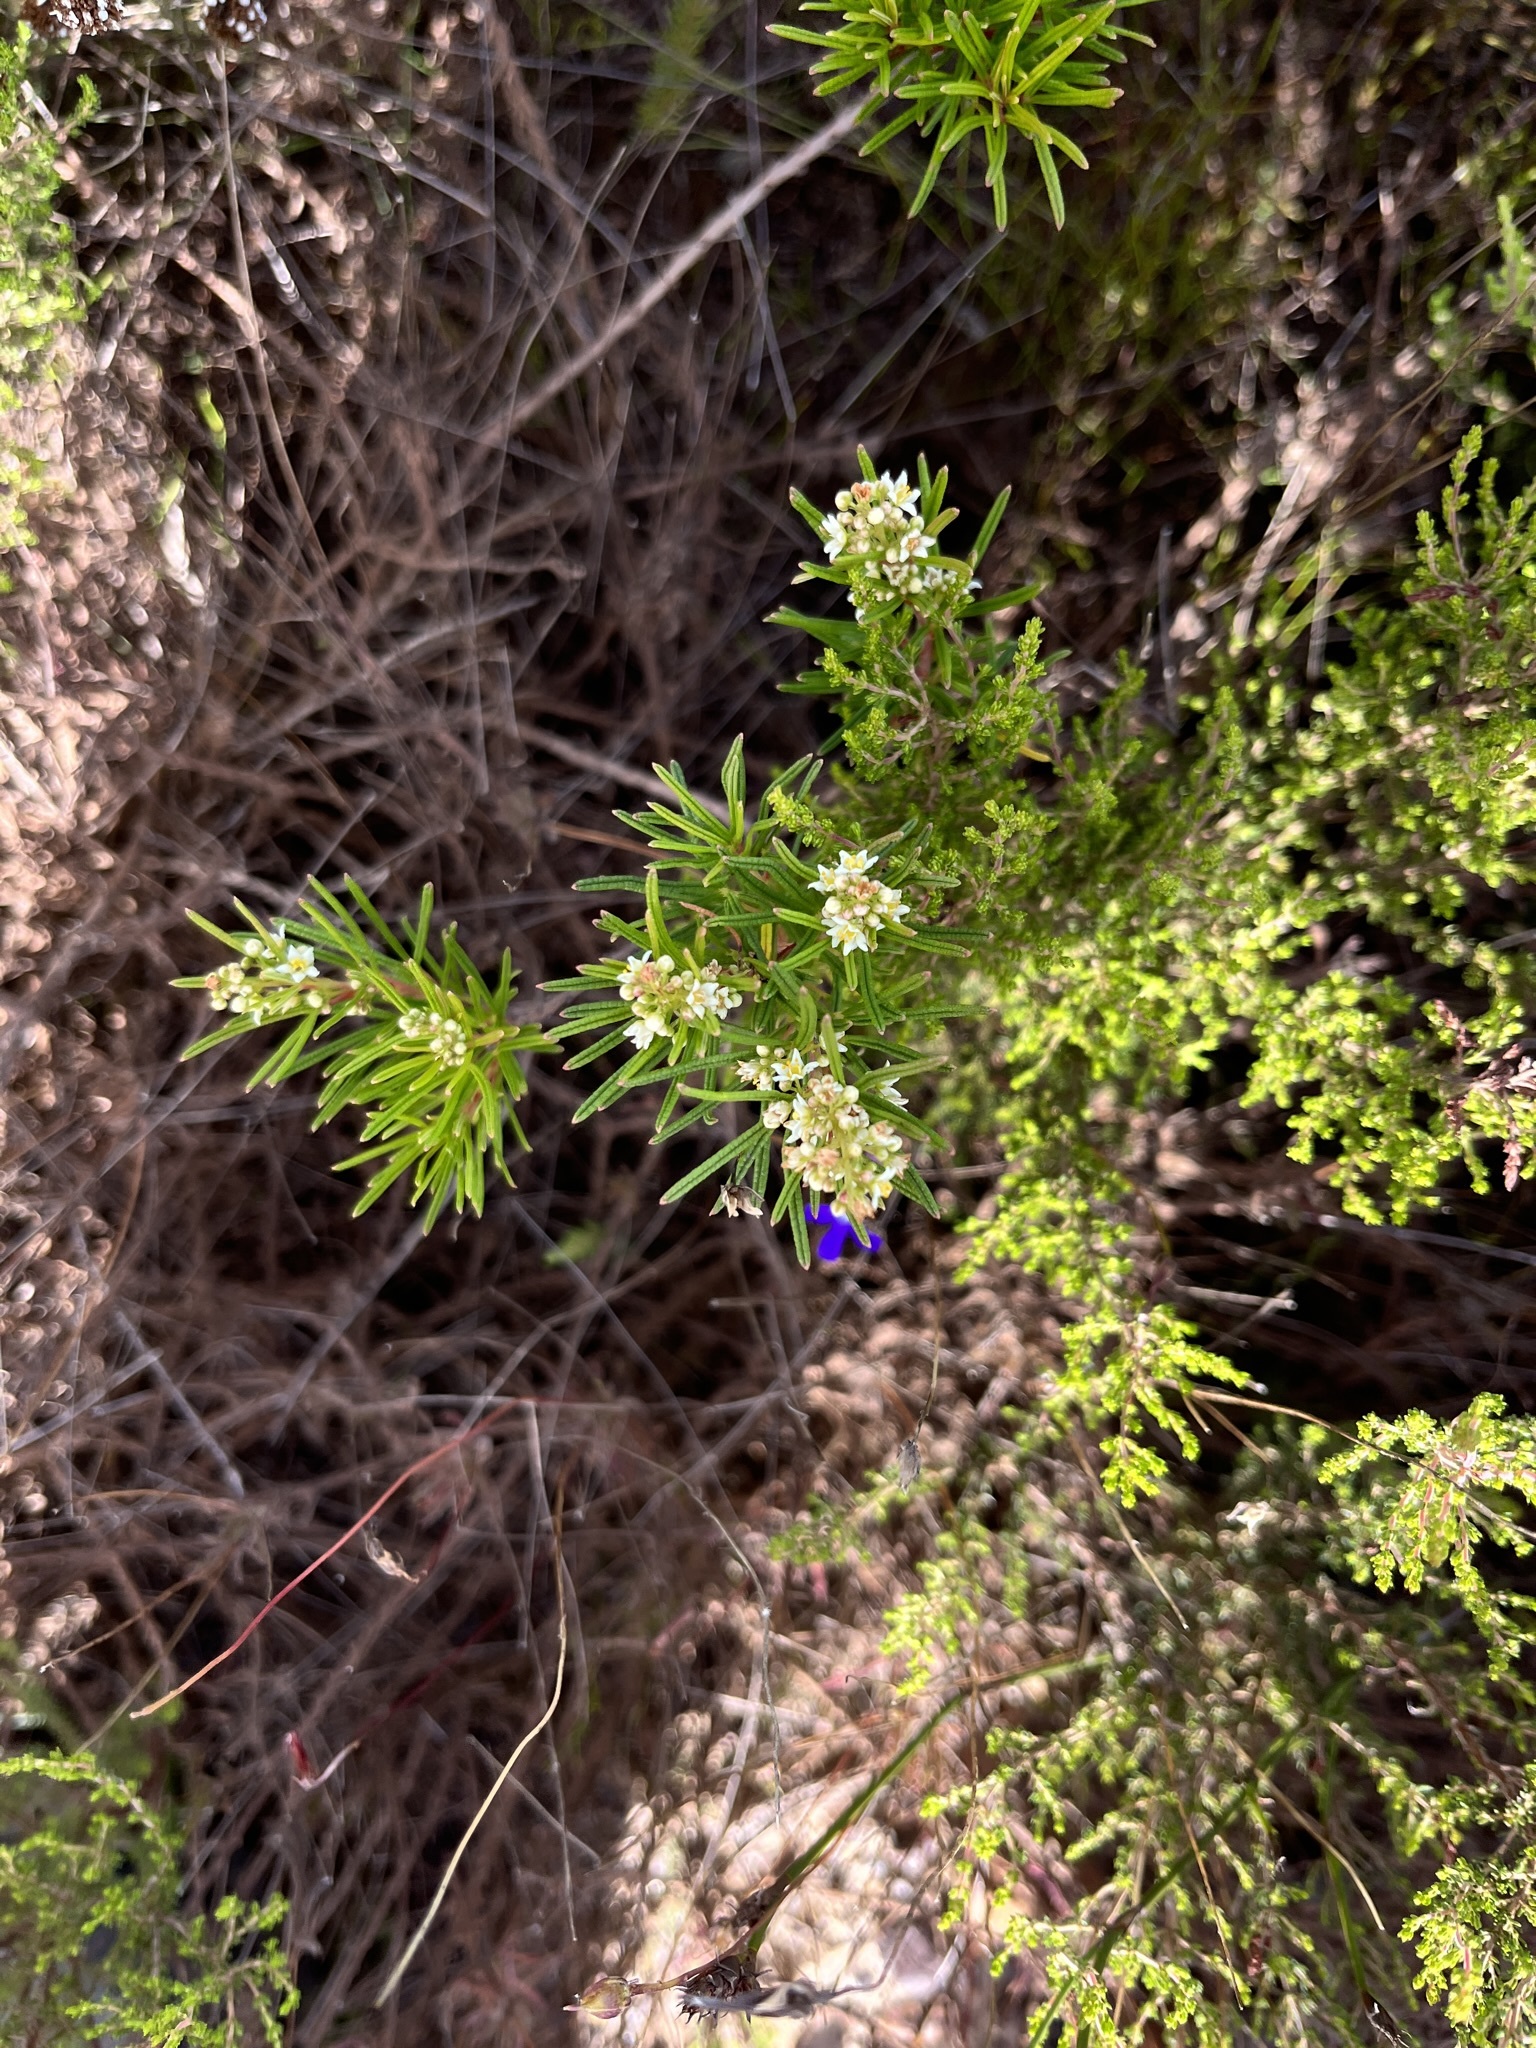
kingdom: Plantae
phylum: Tracheophyta
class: Magnoliopsida
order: Sapindales
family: Anacardiaceae
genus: Searsia
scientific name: Searsia rosmarinifolia
